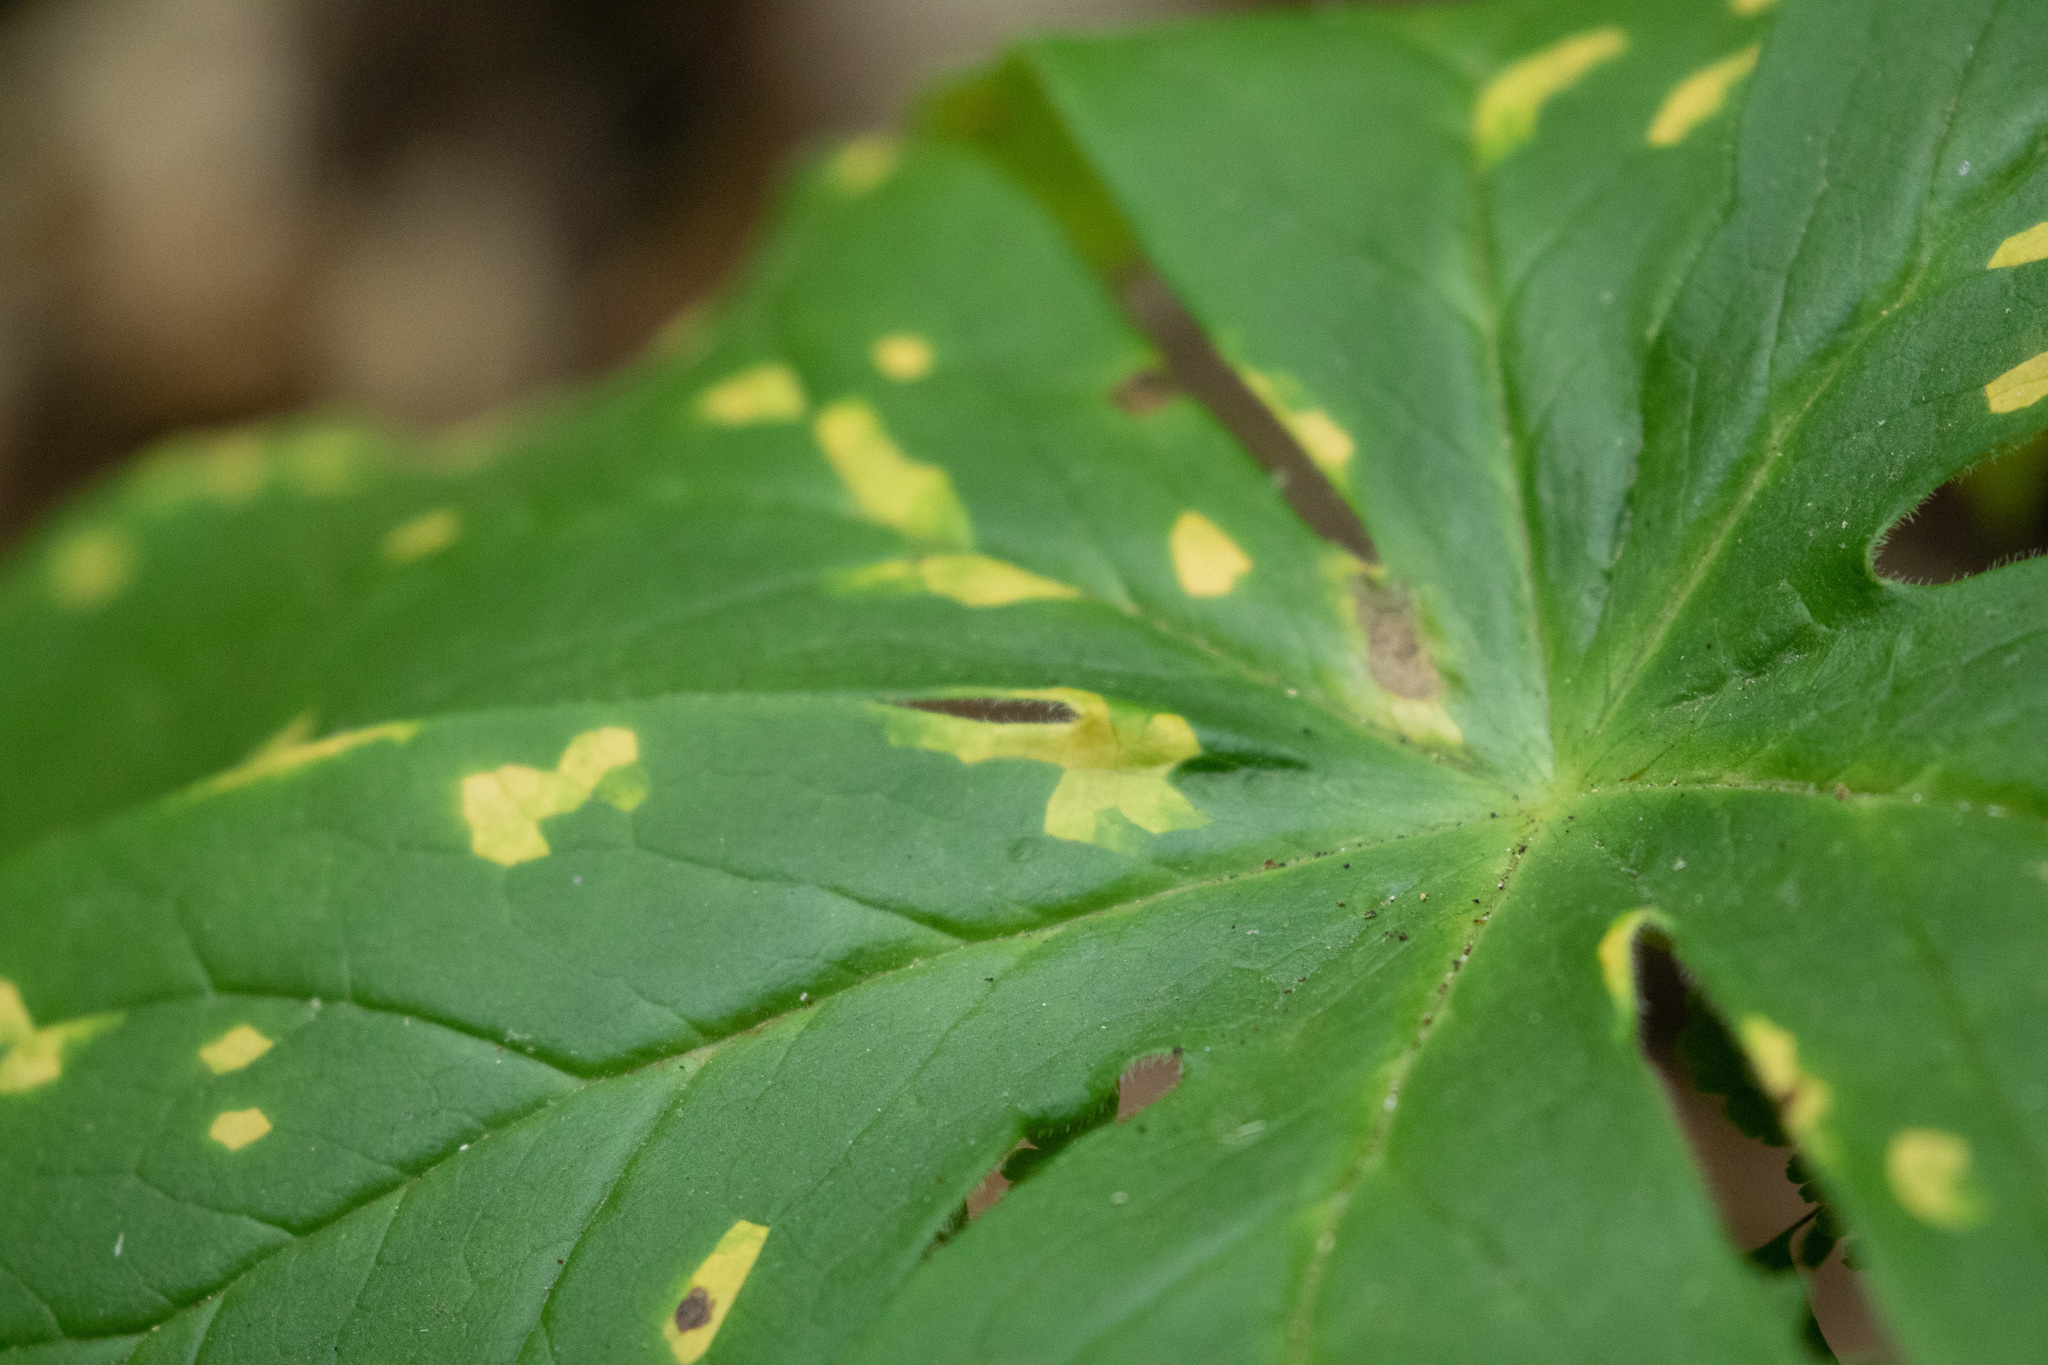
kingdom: Fungi
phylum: Basidiomycota
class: Pucciniomycetes
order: Pucciniales
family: Pucciniaceae
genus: Puccinia
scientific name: Puccinia podophylli
